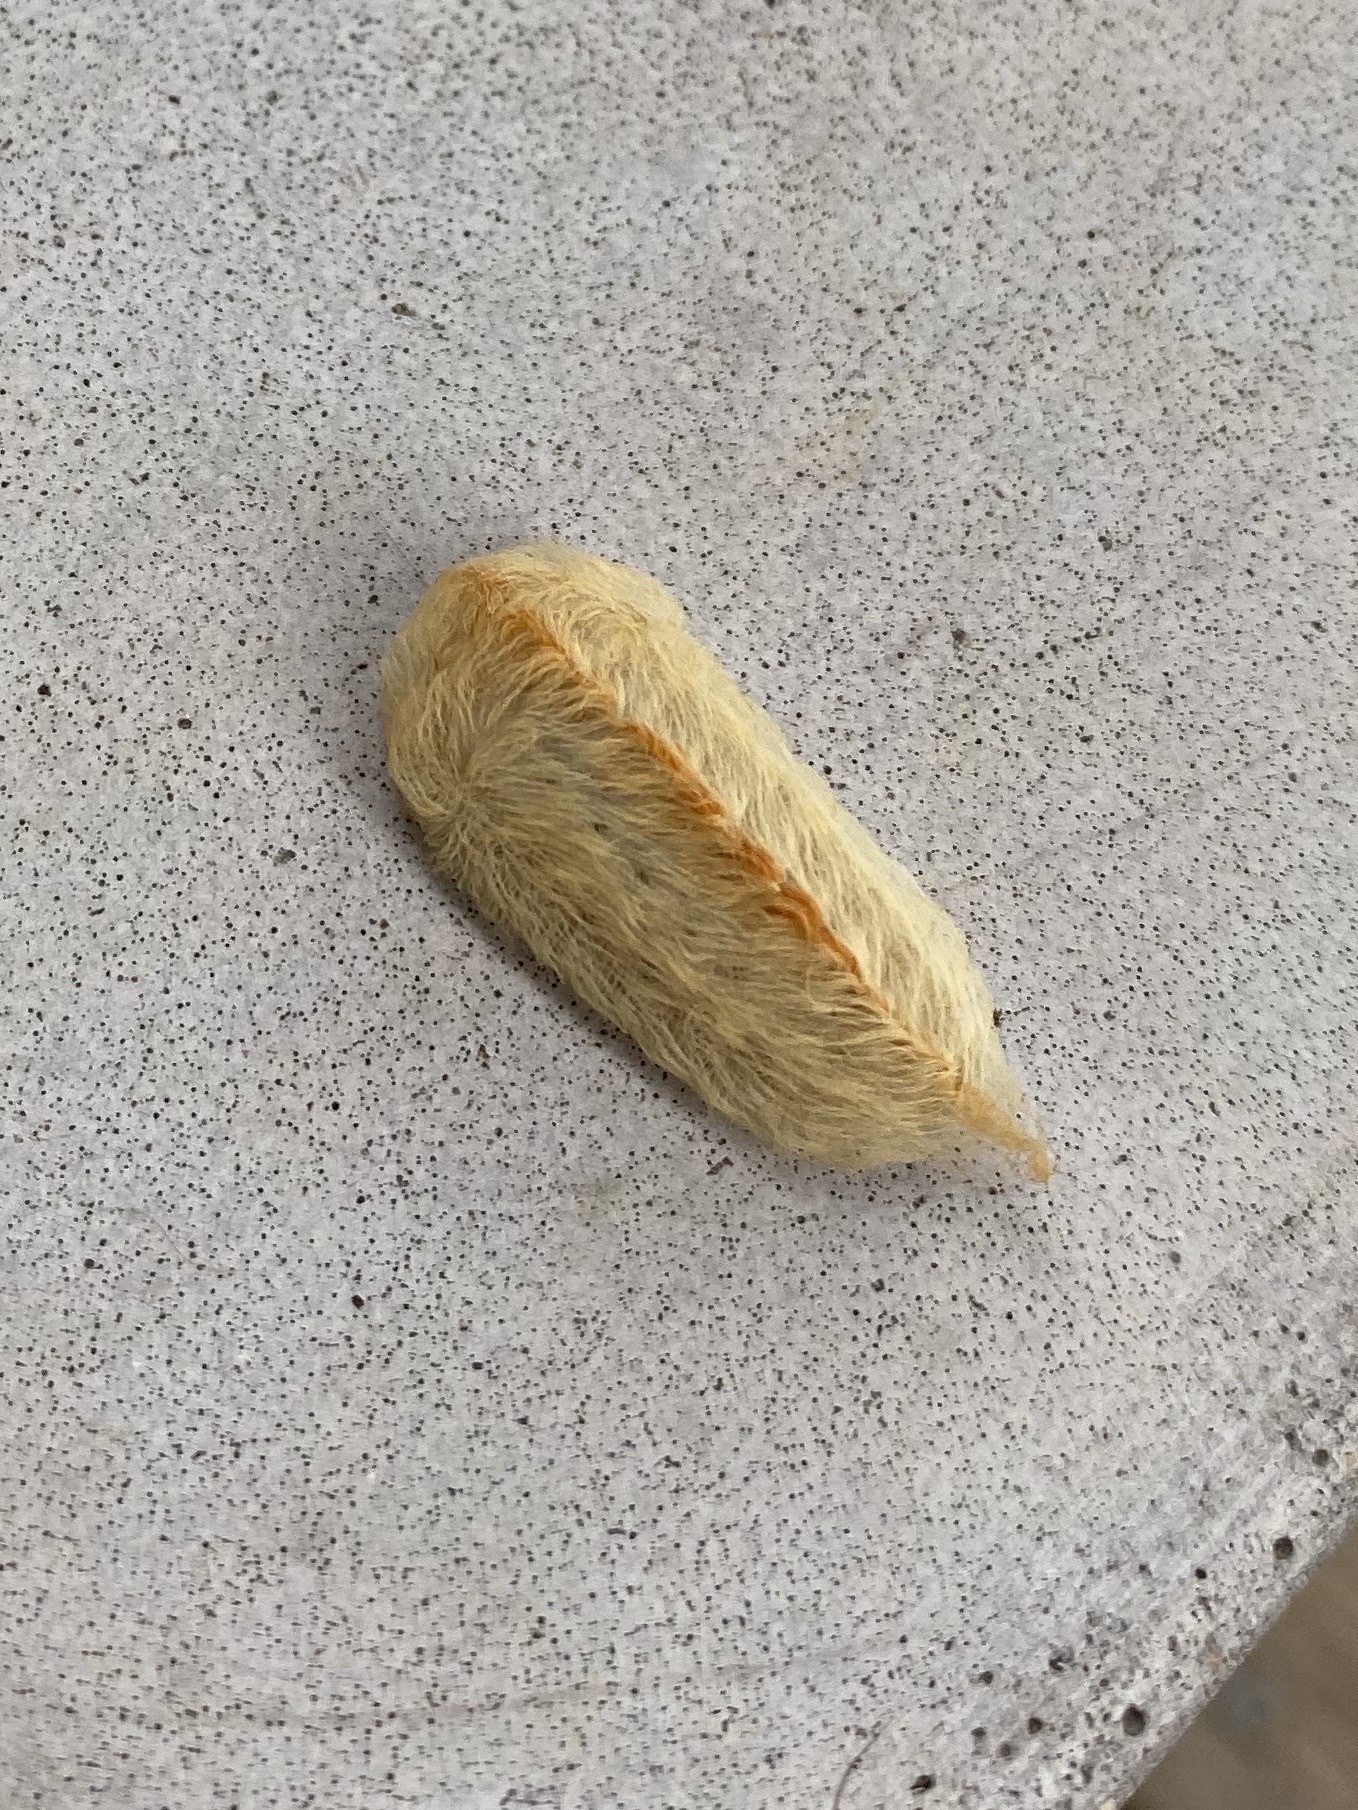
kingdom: Animalia
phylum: Arthropoda
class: Insecta
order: Lepidoptera
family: Megalopygidae
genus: Megalopyge
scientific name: Megalopyge opercularis
